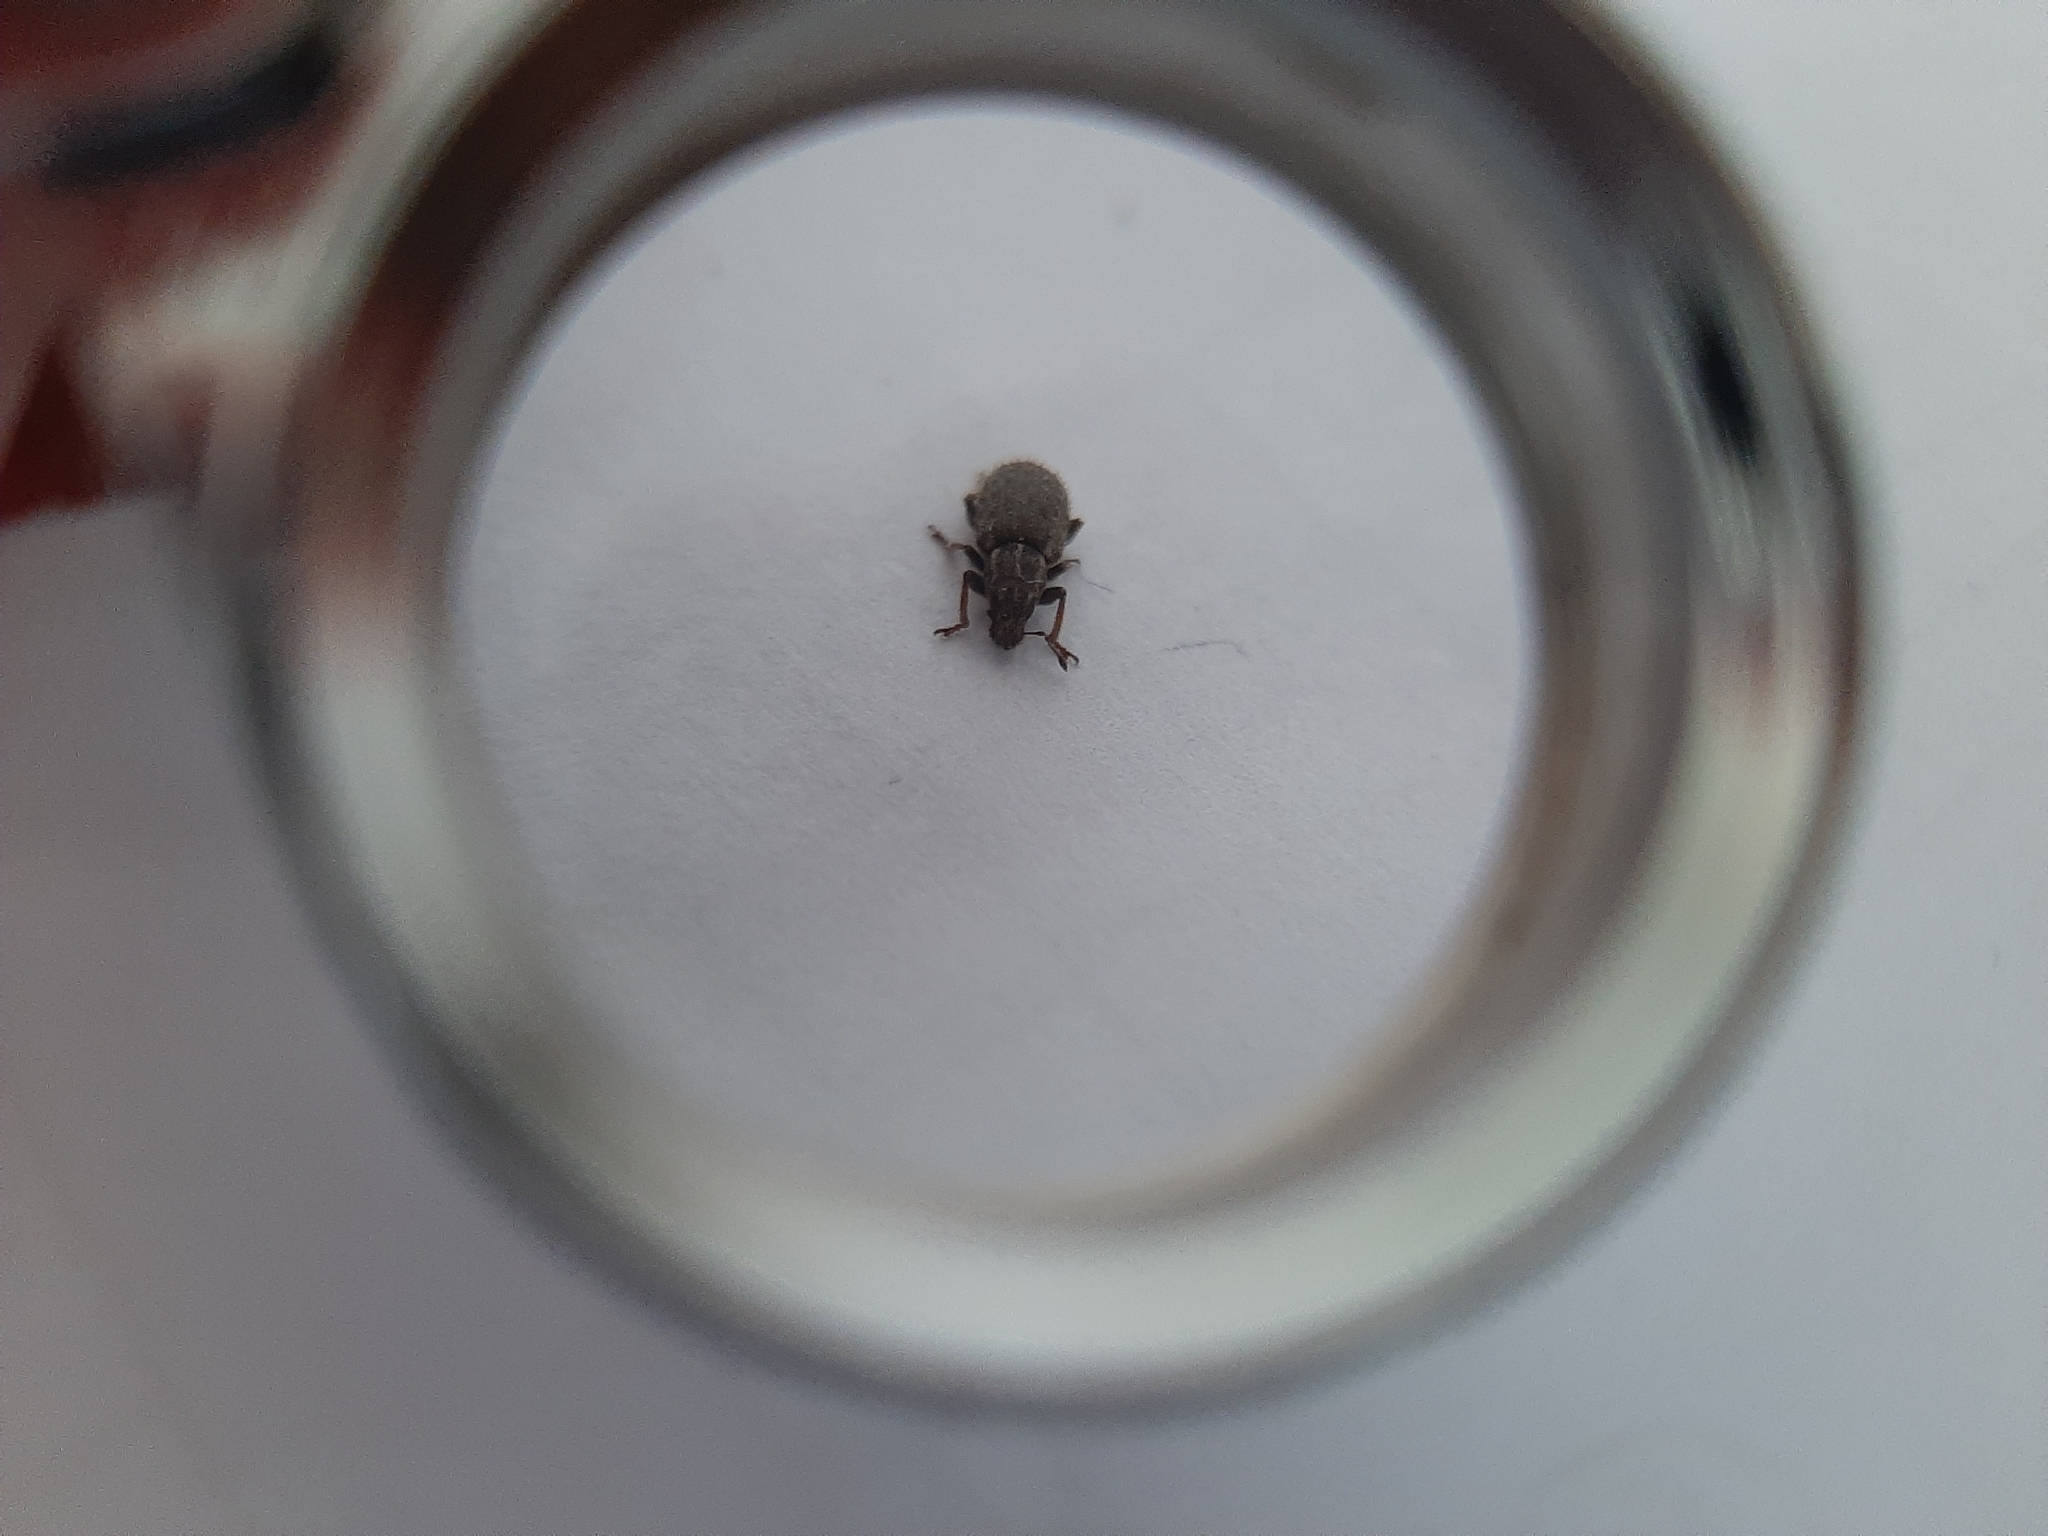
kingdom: Animalia
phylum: Arthropoda
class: Insecta
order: Coleoptera
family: Curculionidae
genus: Sitona
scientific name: Sitona hispidulus
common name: Clover weevil
